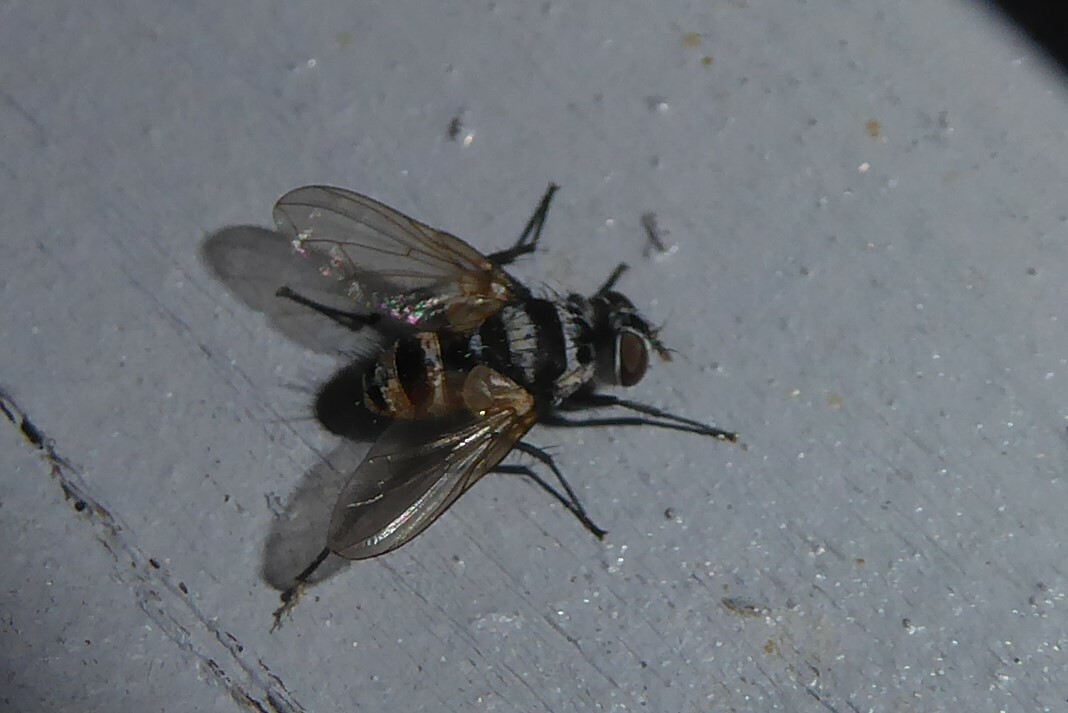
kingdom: Animalia
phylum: Arthropoda
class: Insecta
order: Diptera
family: Tachinidae
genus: Trigonospila
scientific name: Trigonospila brevifacies
